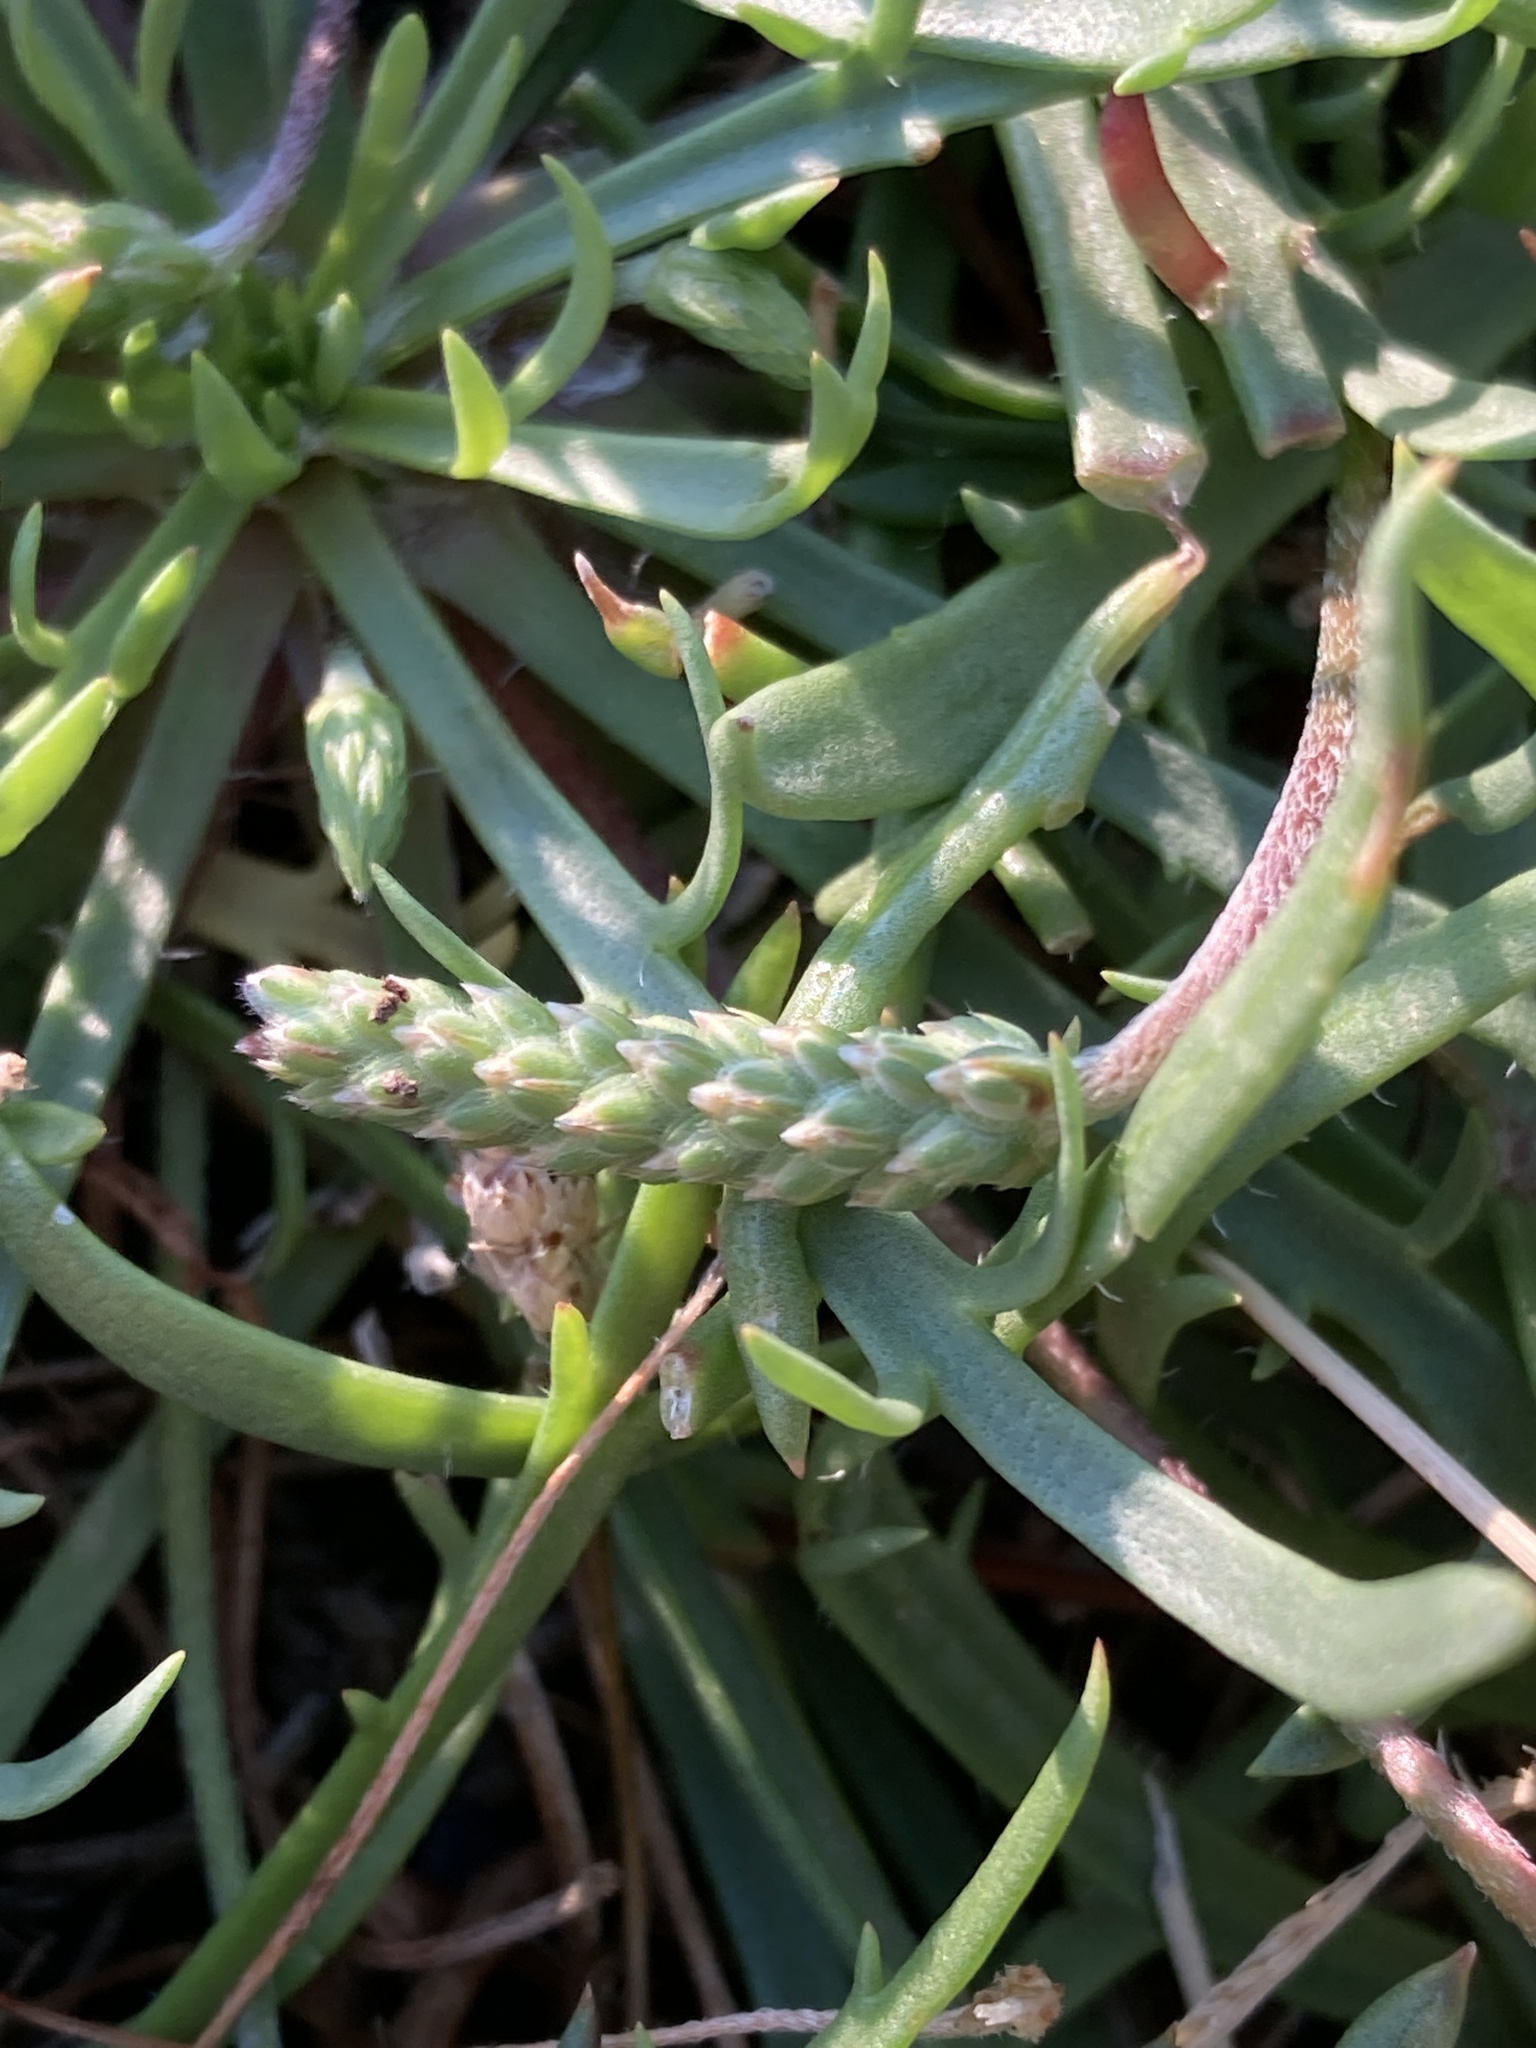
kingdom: Plantae
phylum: Tracheophyta
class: Magnoliopsida
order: Lamiales
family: Plantaginaceae
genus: Plantago
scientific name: Plantago coronopus
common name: Buck's-horn plantain
